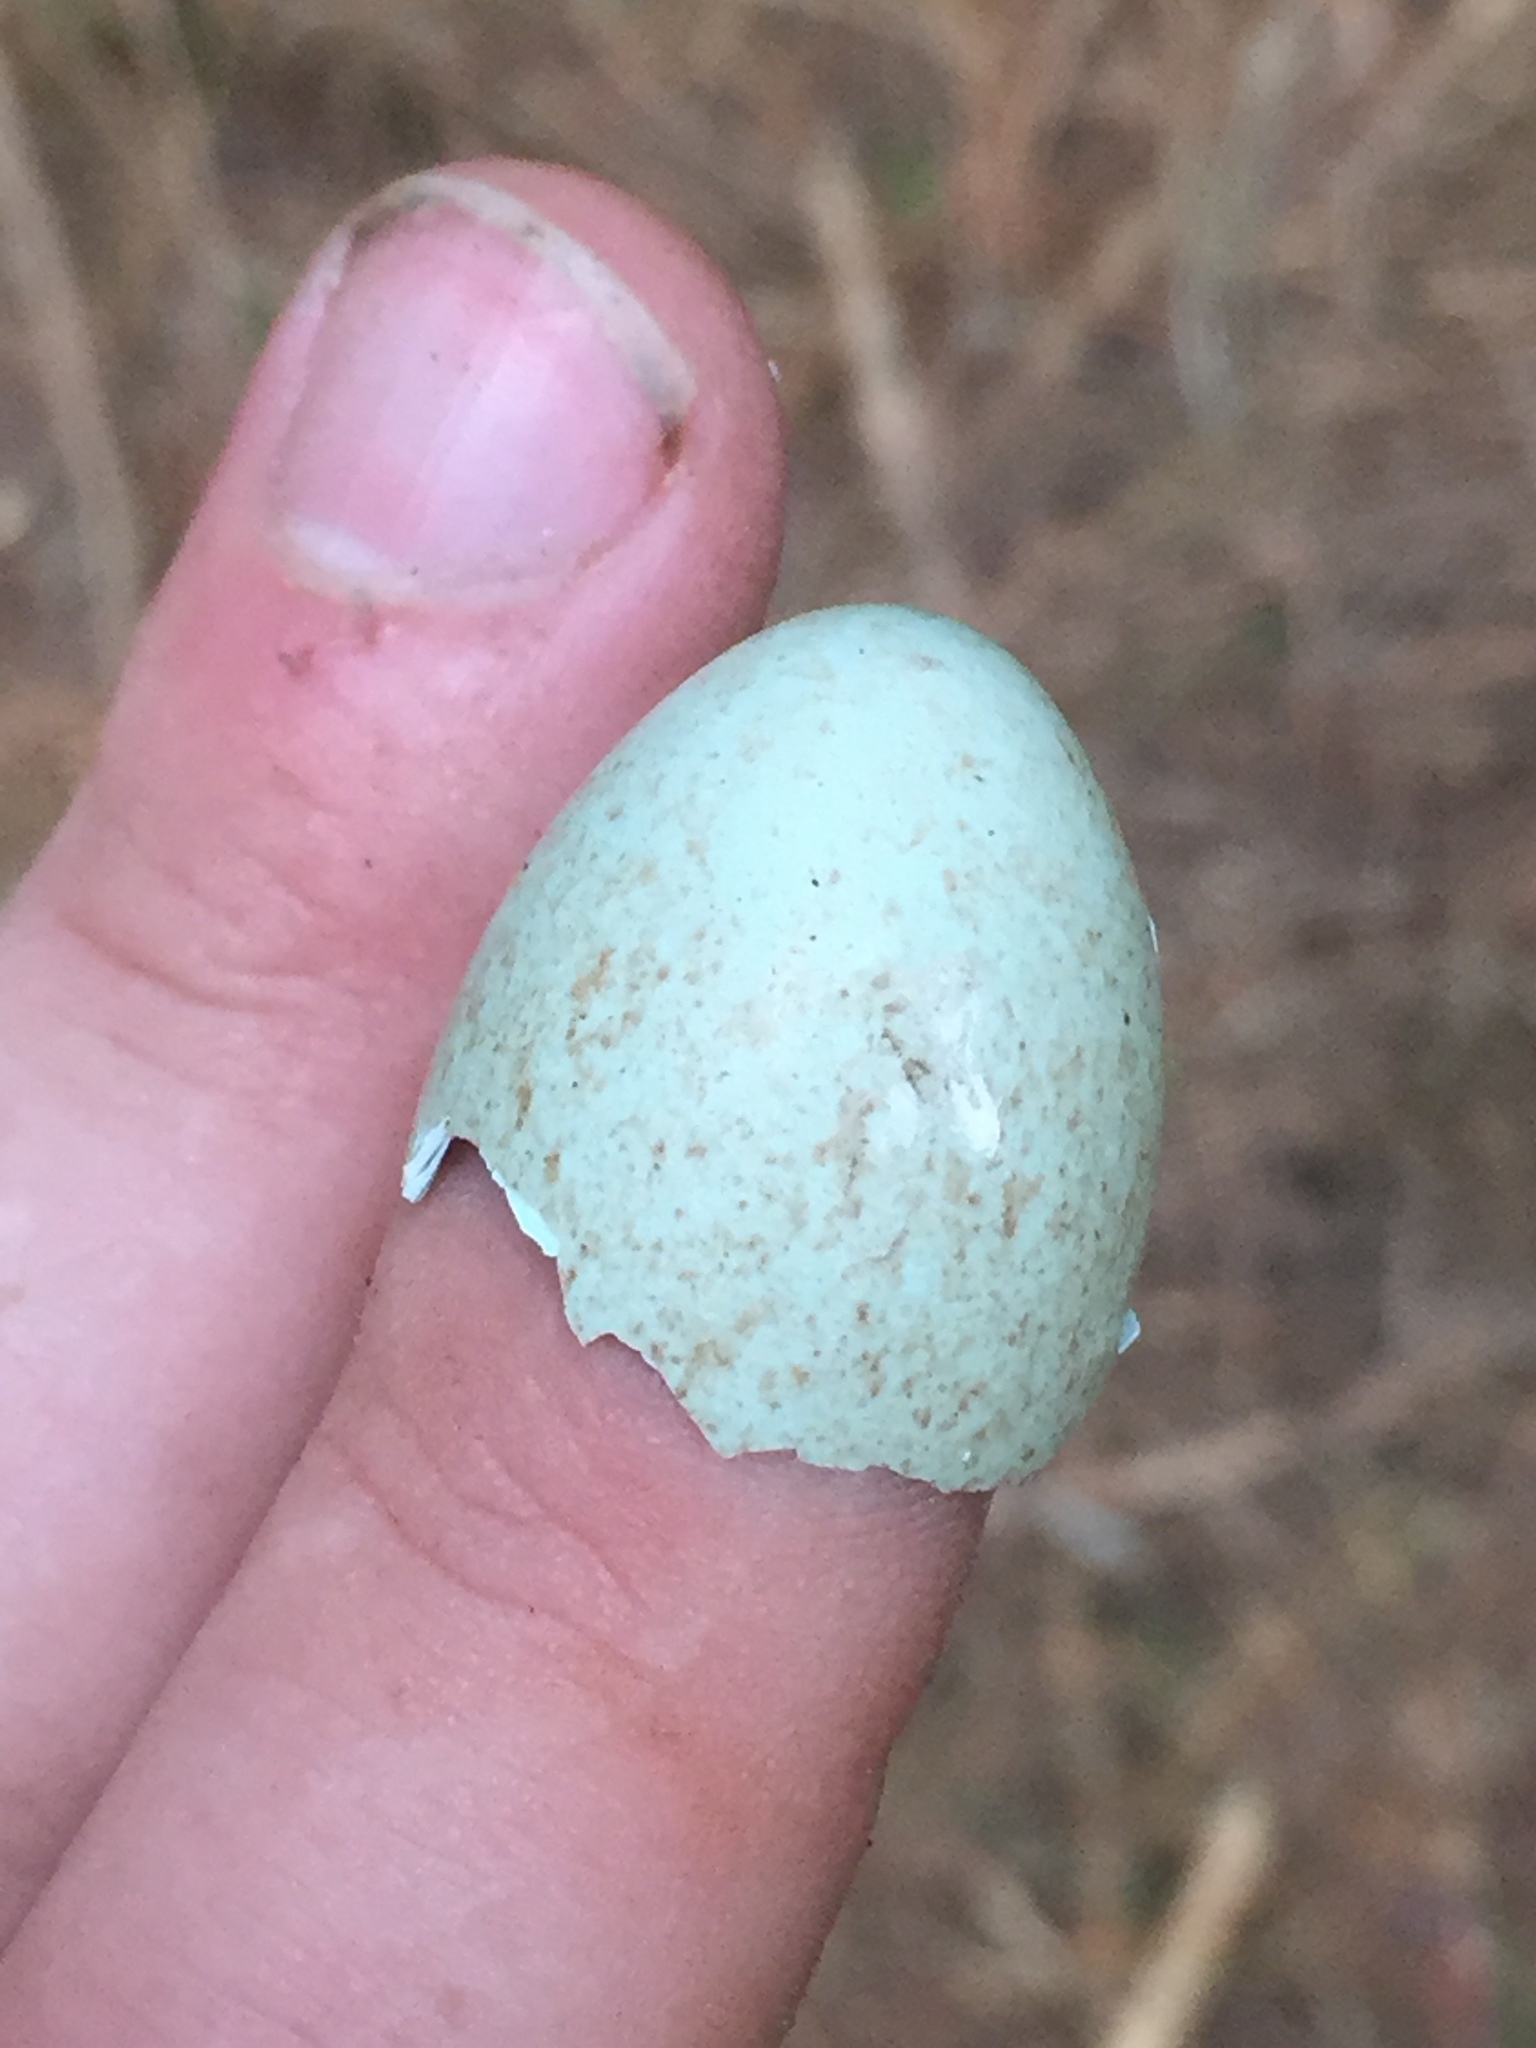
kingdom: Animalia
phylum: Chordata
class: Aves
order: Passeriformes
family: Turdidae
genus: Turdus
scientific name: Turdus merula
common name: Common blackbird
